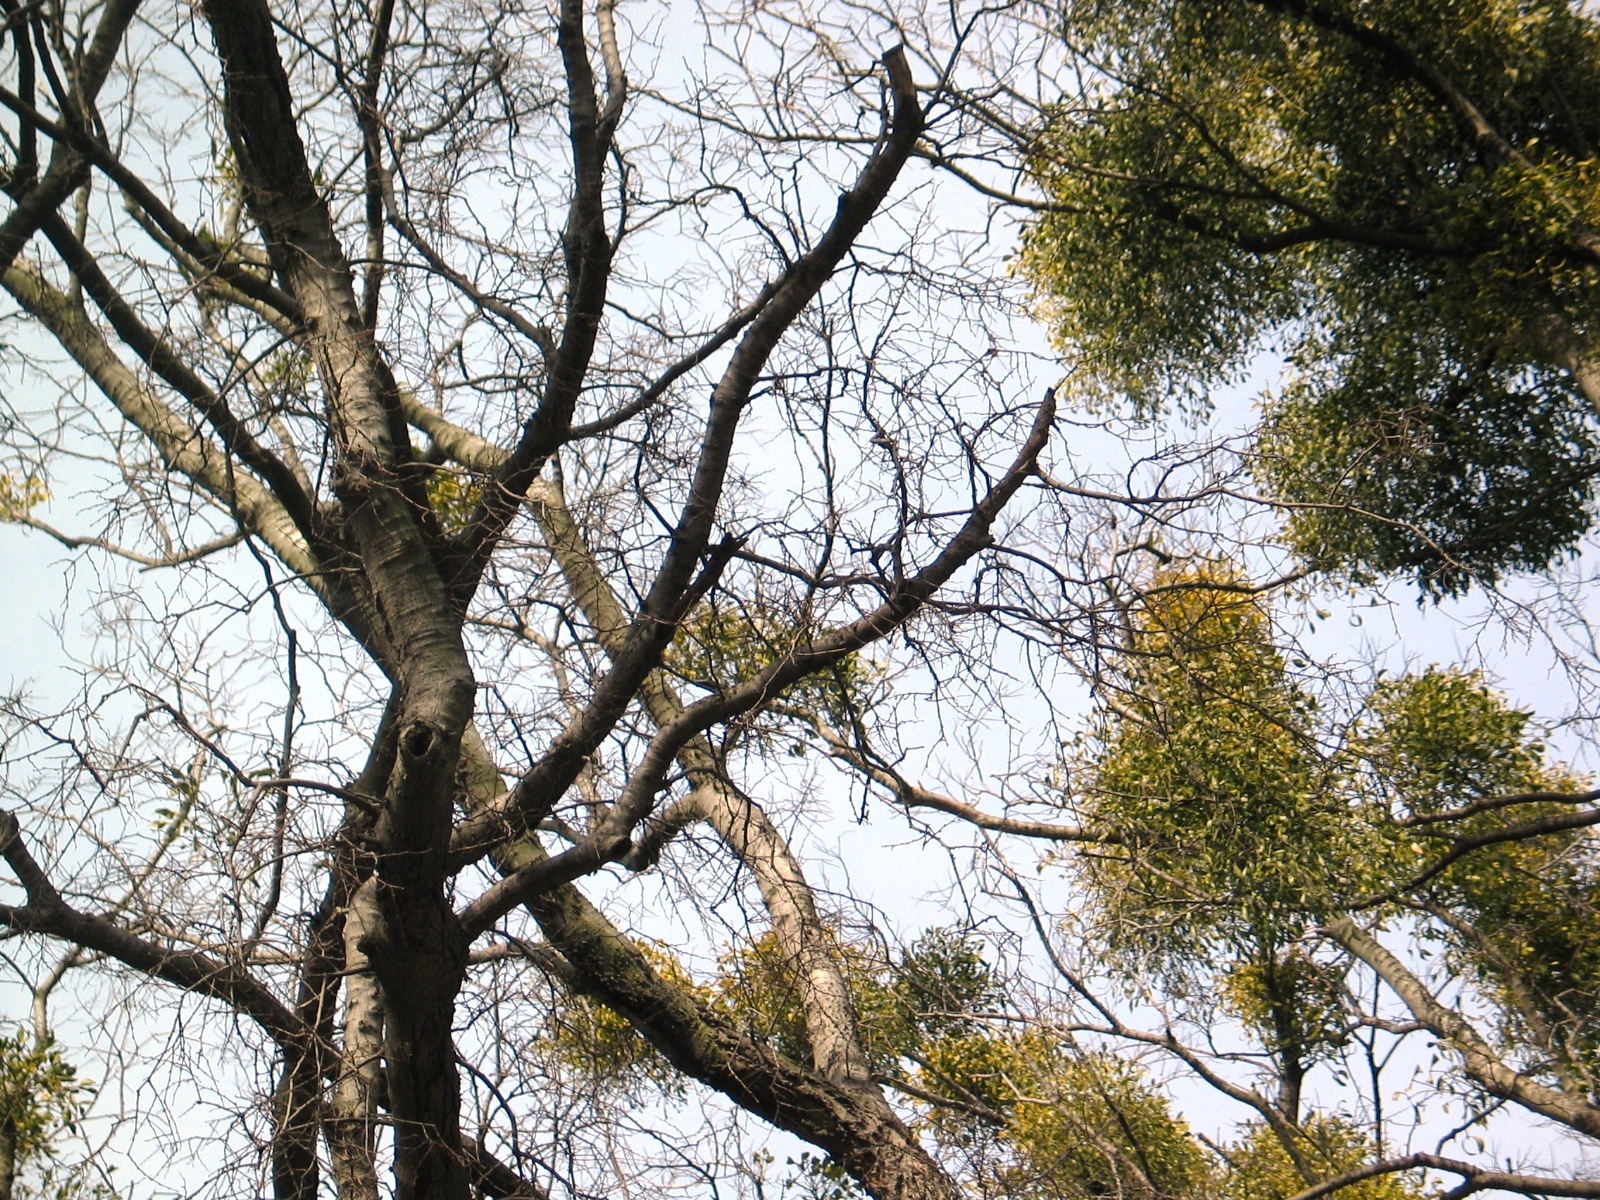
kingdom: Plantae
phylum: Tracheophyta
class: Magnoliopsida
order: Santalales
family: Viscaceae
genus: Viscum
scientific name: Viscum album
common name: Mistletoe
